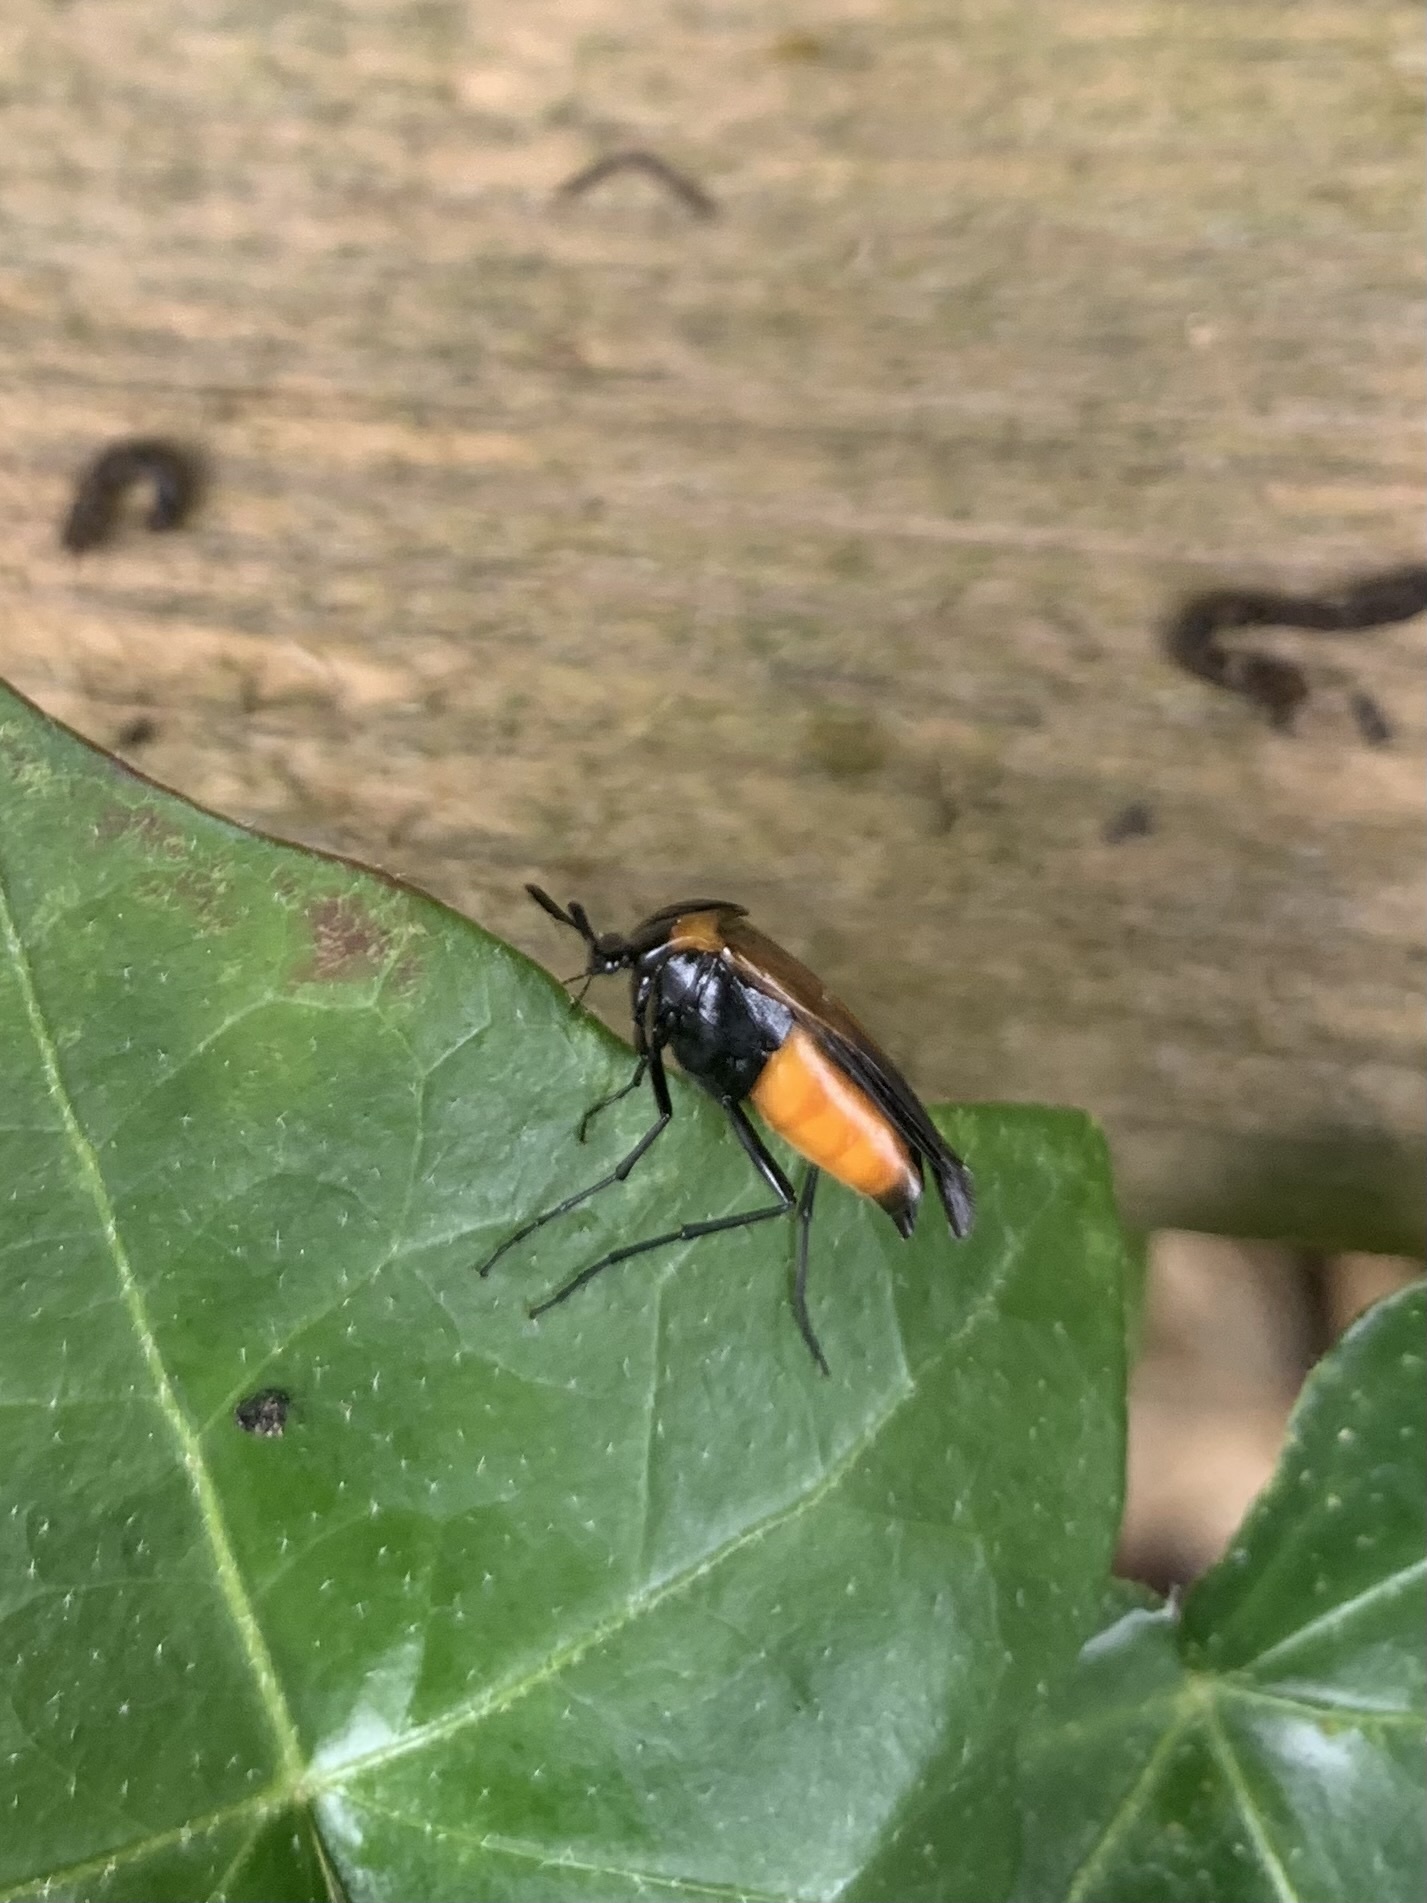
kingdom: Animalia
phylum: Arthropoda
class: Insecta
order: Coleoptera
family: Ripiphoridae
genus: Metoecus
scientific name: Metoecus paradoxus
